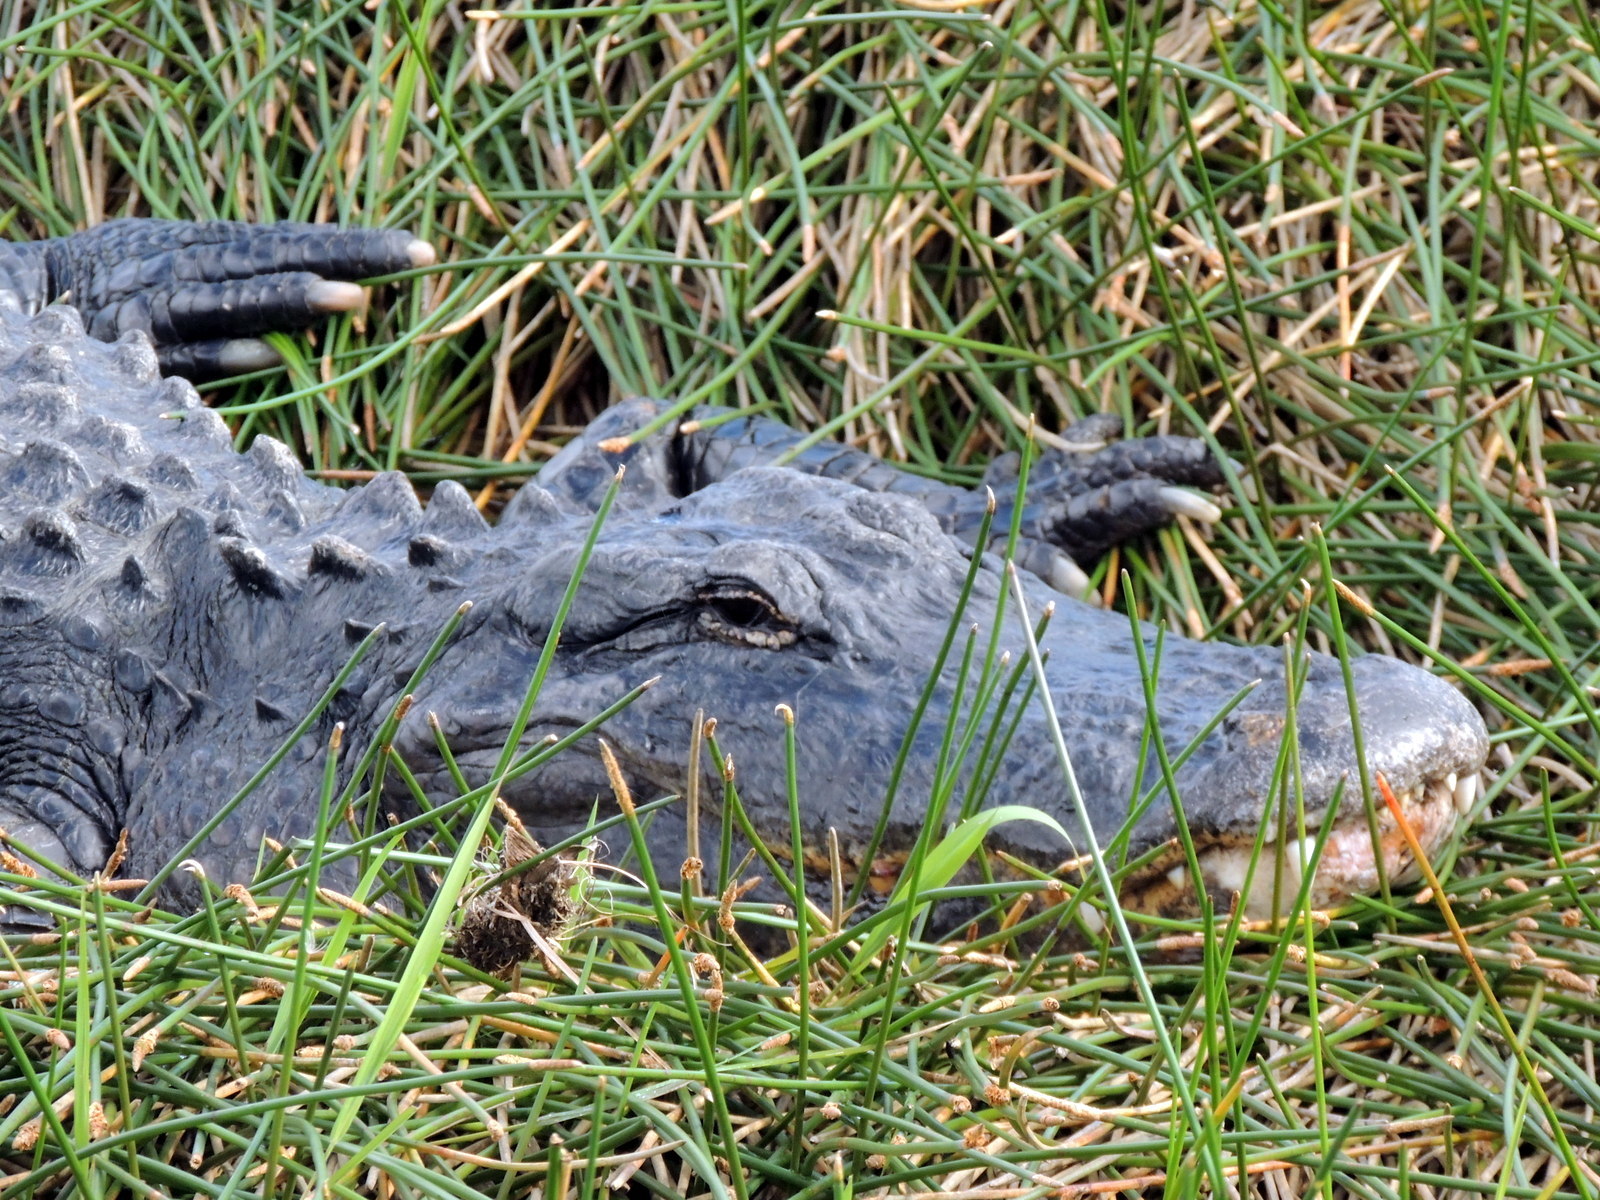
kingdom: Animalia
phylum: Chordata
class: Crocodylia
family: Alligatoridae
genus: Alligator
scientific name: Alligator mississippiensis
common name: American alligator
